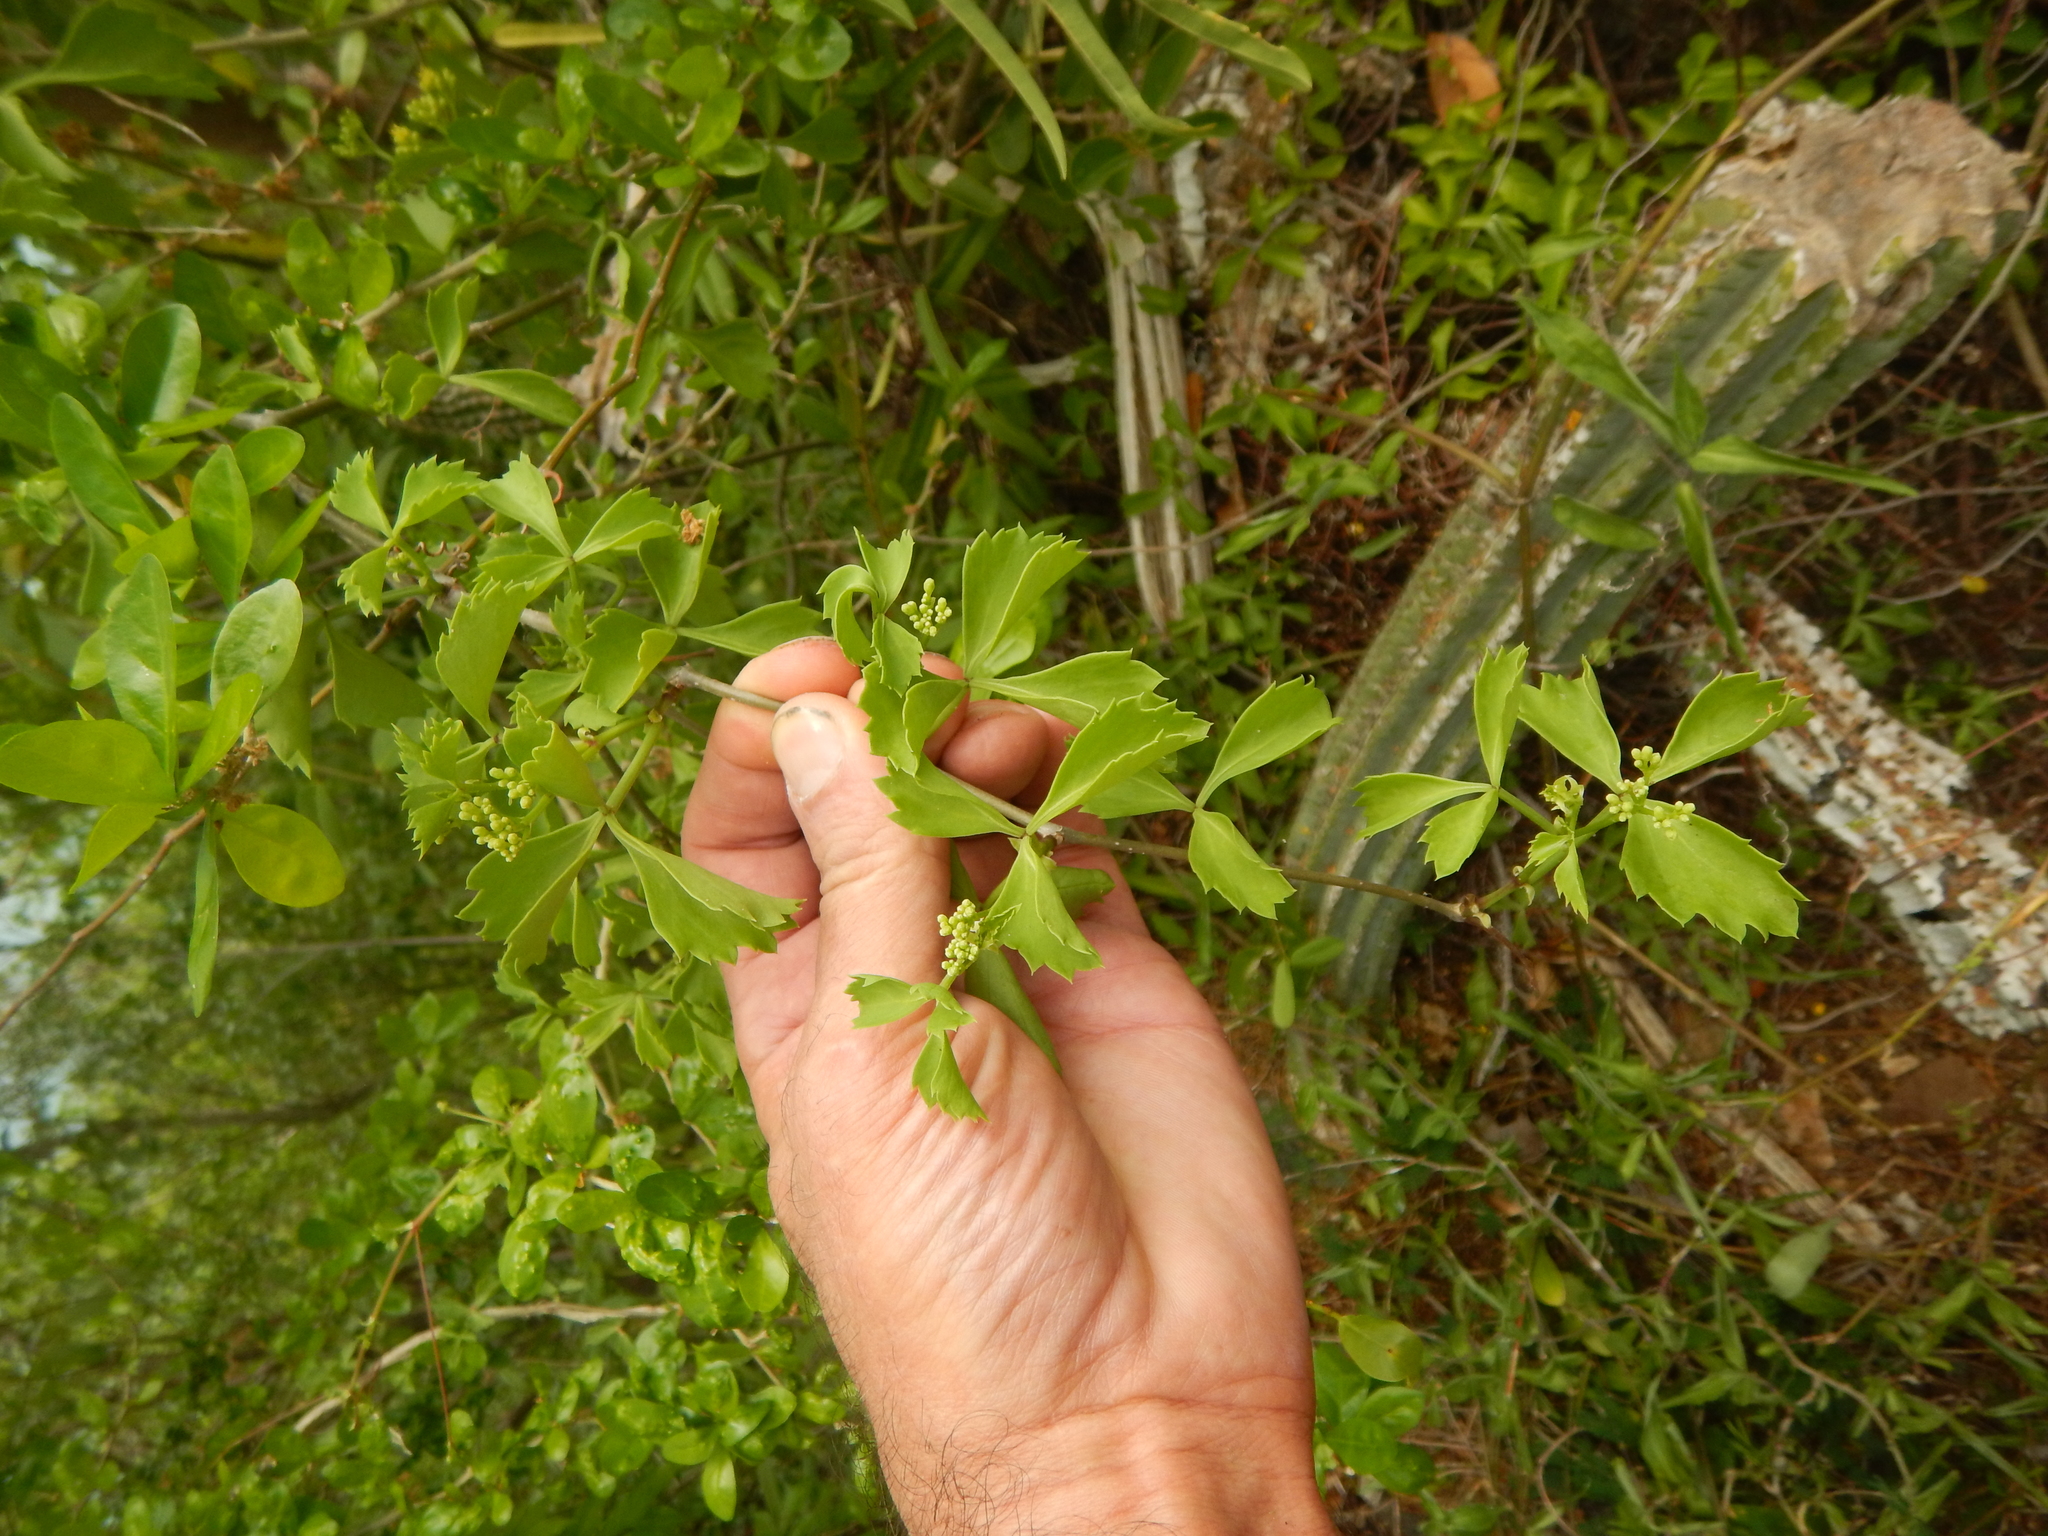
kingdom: Plantae
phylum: Tracheophyta
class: Magnoliopsida
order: Vitales
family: Vitaceae
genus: Cissus
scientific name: Cissus trifoliata
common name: Vine-sorrel
